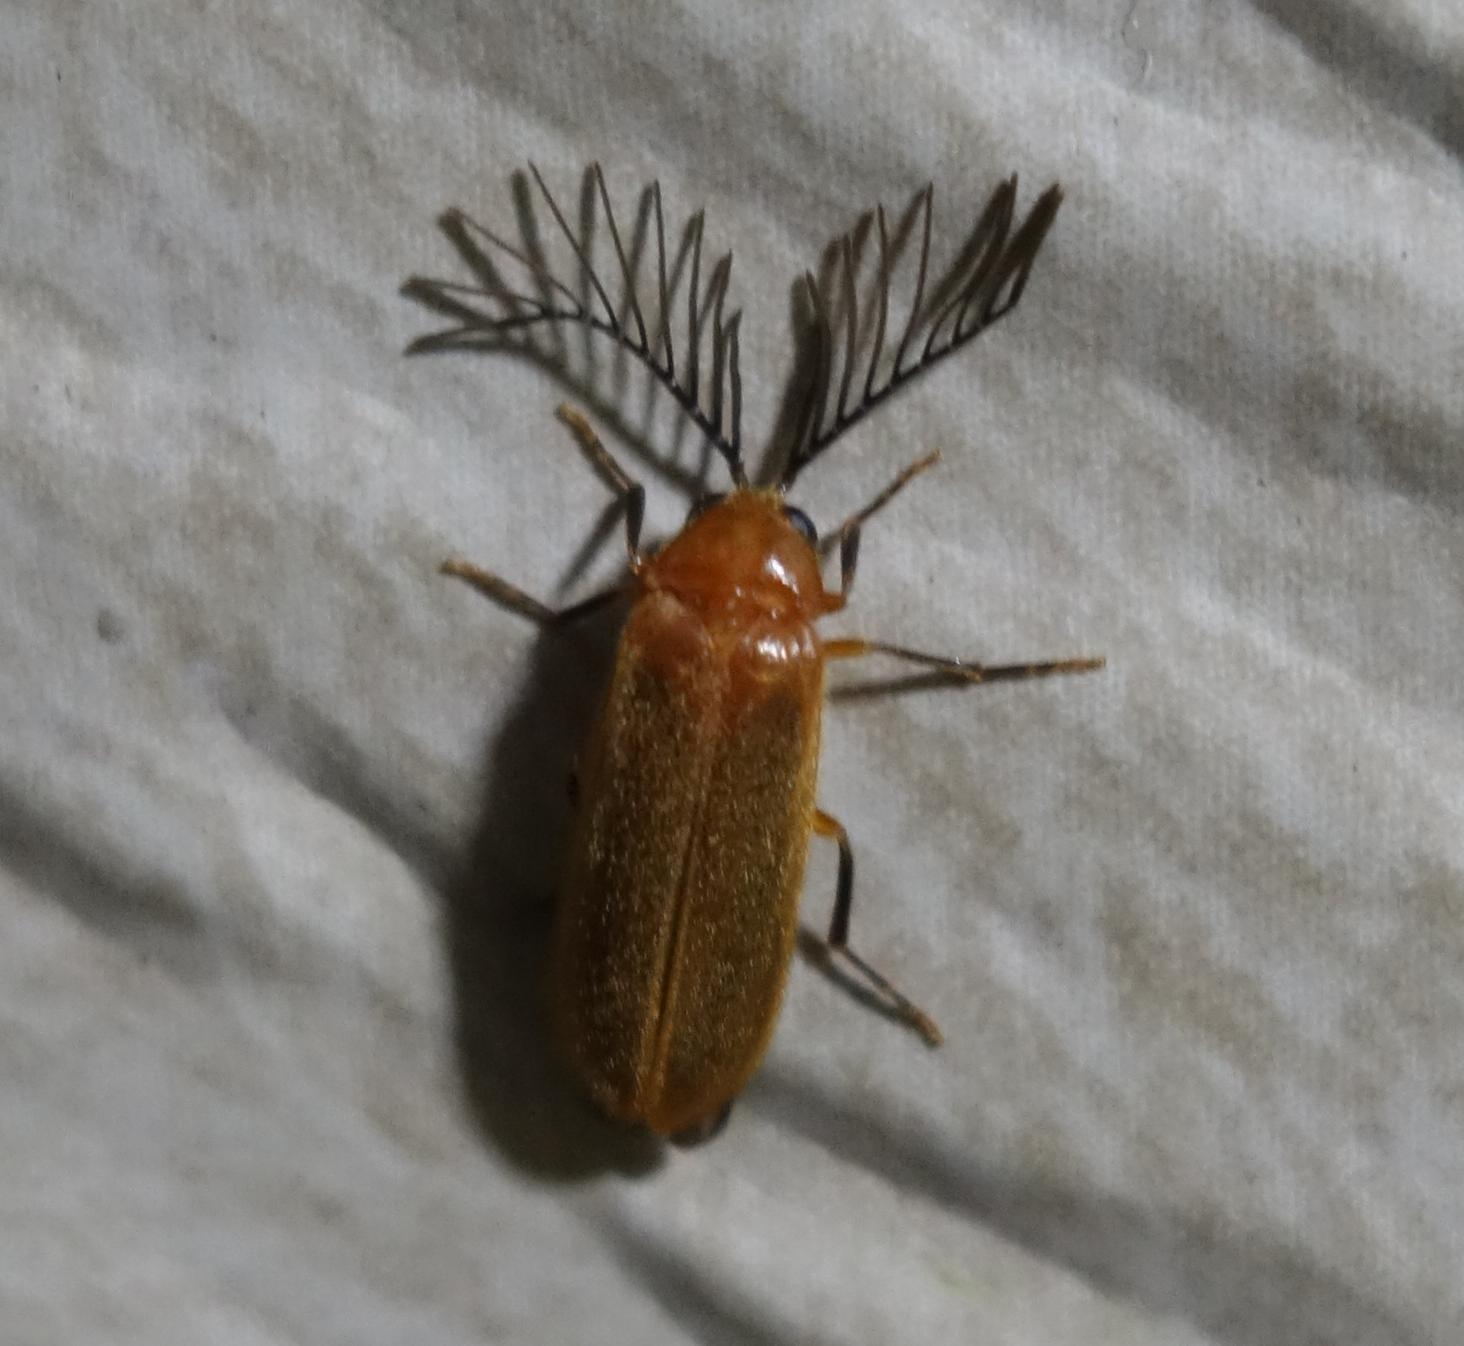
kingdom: Animalia
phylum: Arthropoda
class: Insecta
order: Coleoptera
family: Lampyridae
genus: Stenocladius
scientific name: Stenocladius bicoloripes
